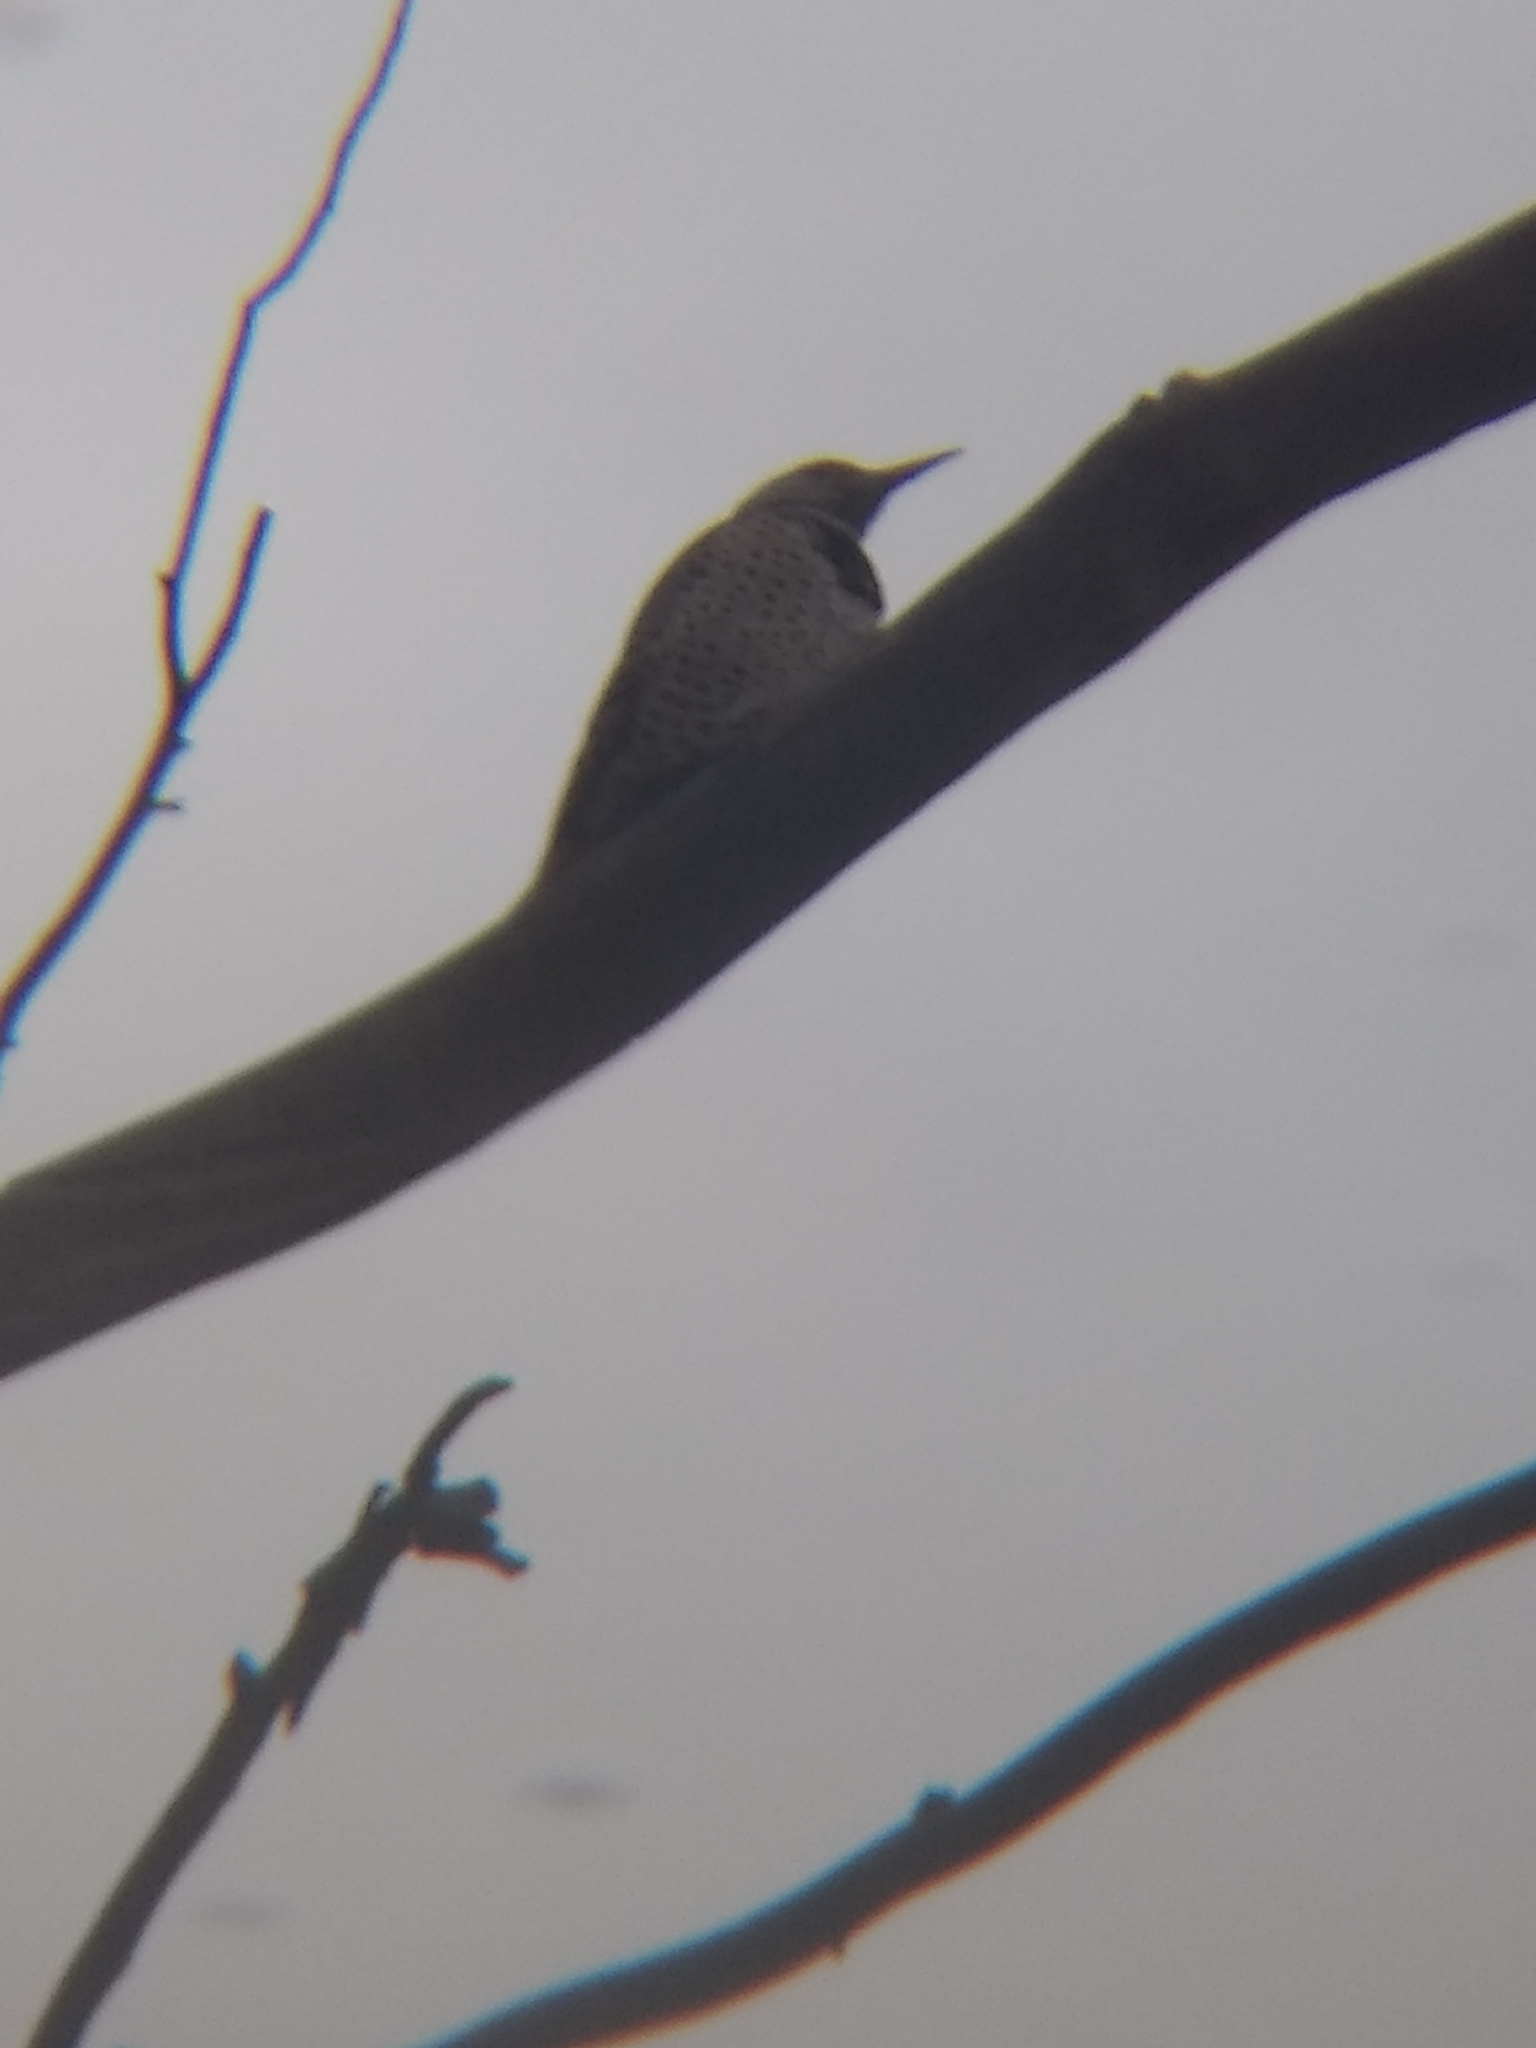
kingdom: Animalia
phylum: Chordata
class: Aves
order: Piciformes
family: Picidae
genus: Colaptes
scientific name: Colaptes auratus
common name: Northern flicker
